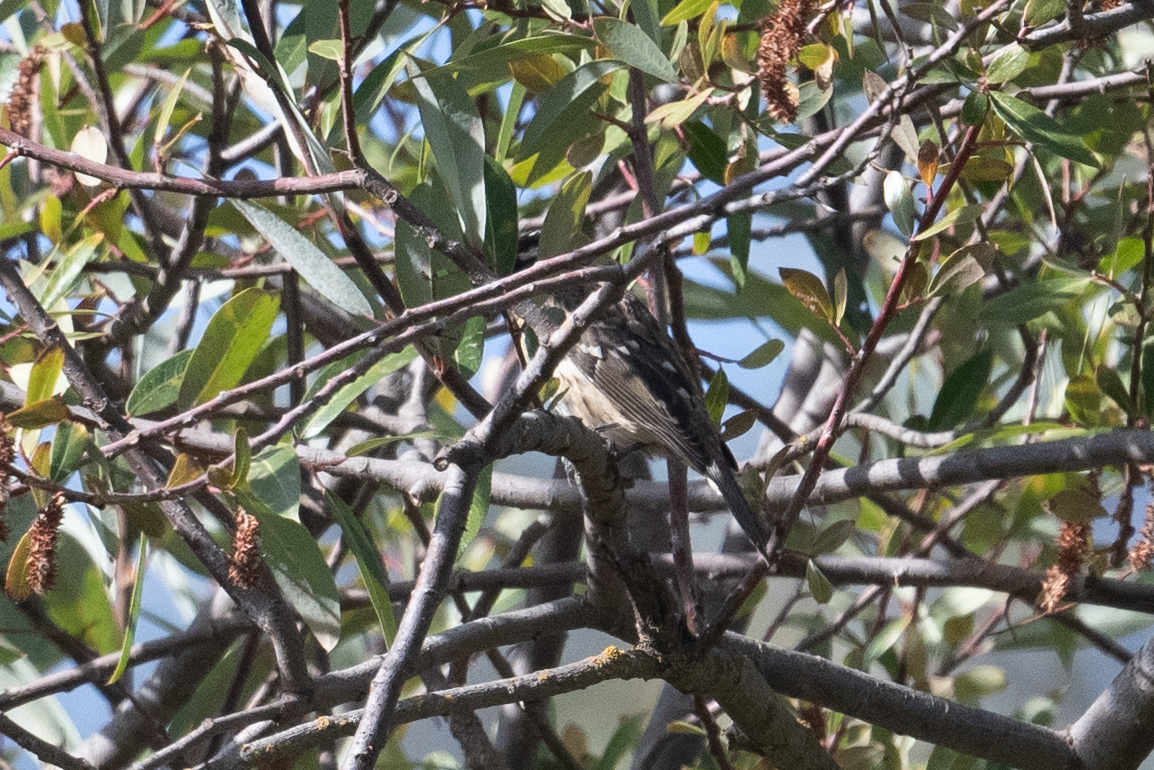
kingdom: Animalia
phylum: Chordata
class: Aves
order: Passeriformes
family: Cardinalidae
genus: Pheucticus
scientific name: Pheucticus melanocephalus
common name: Black-headed grosbeak
